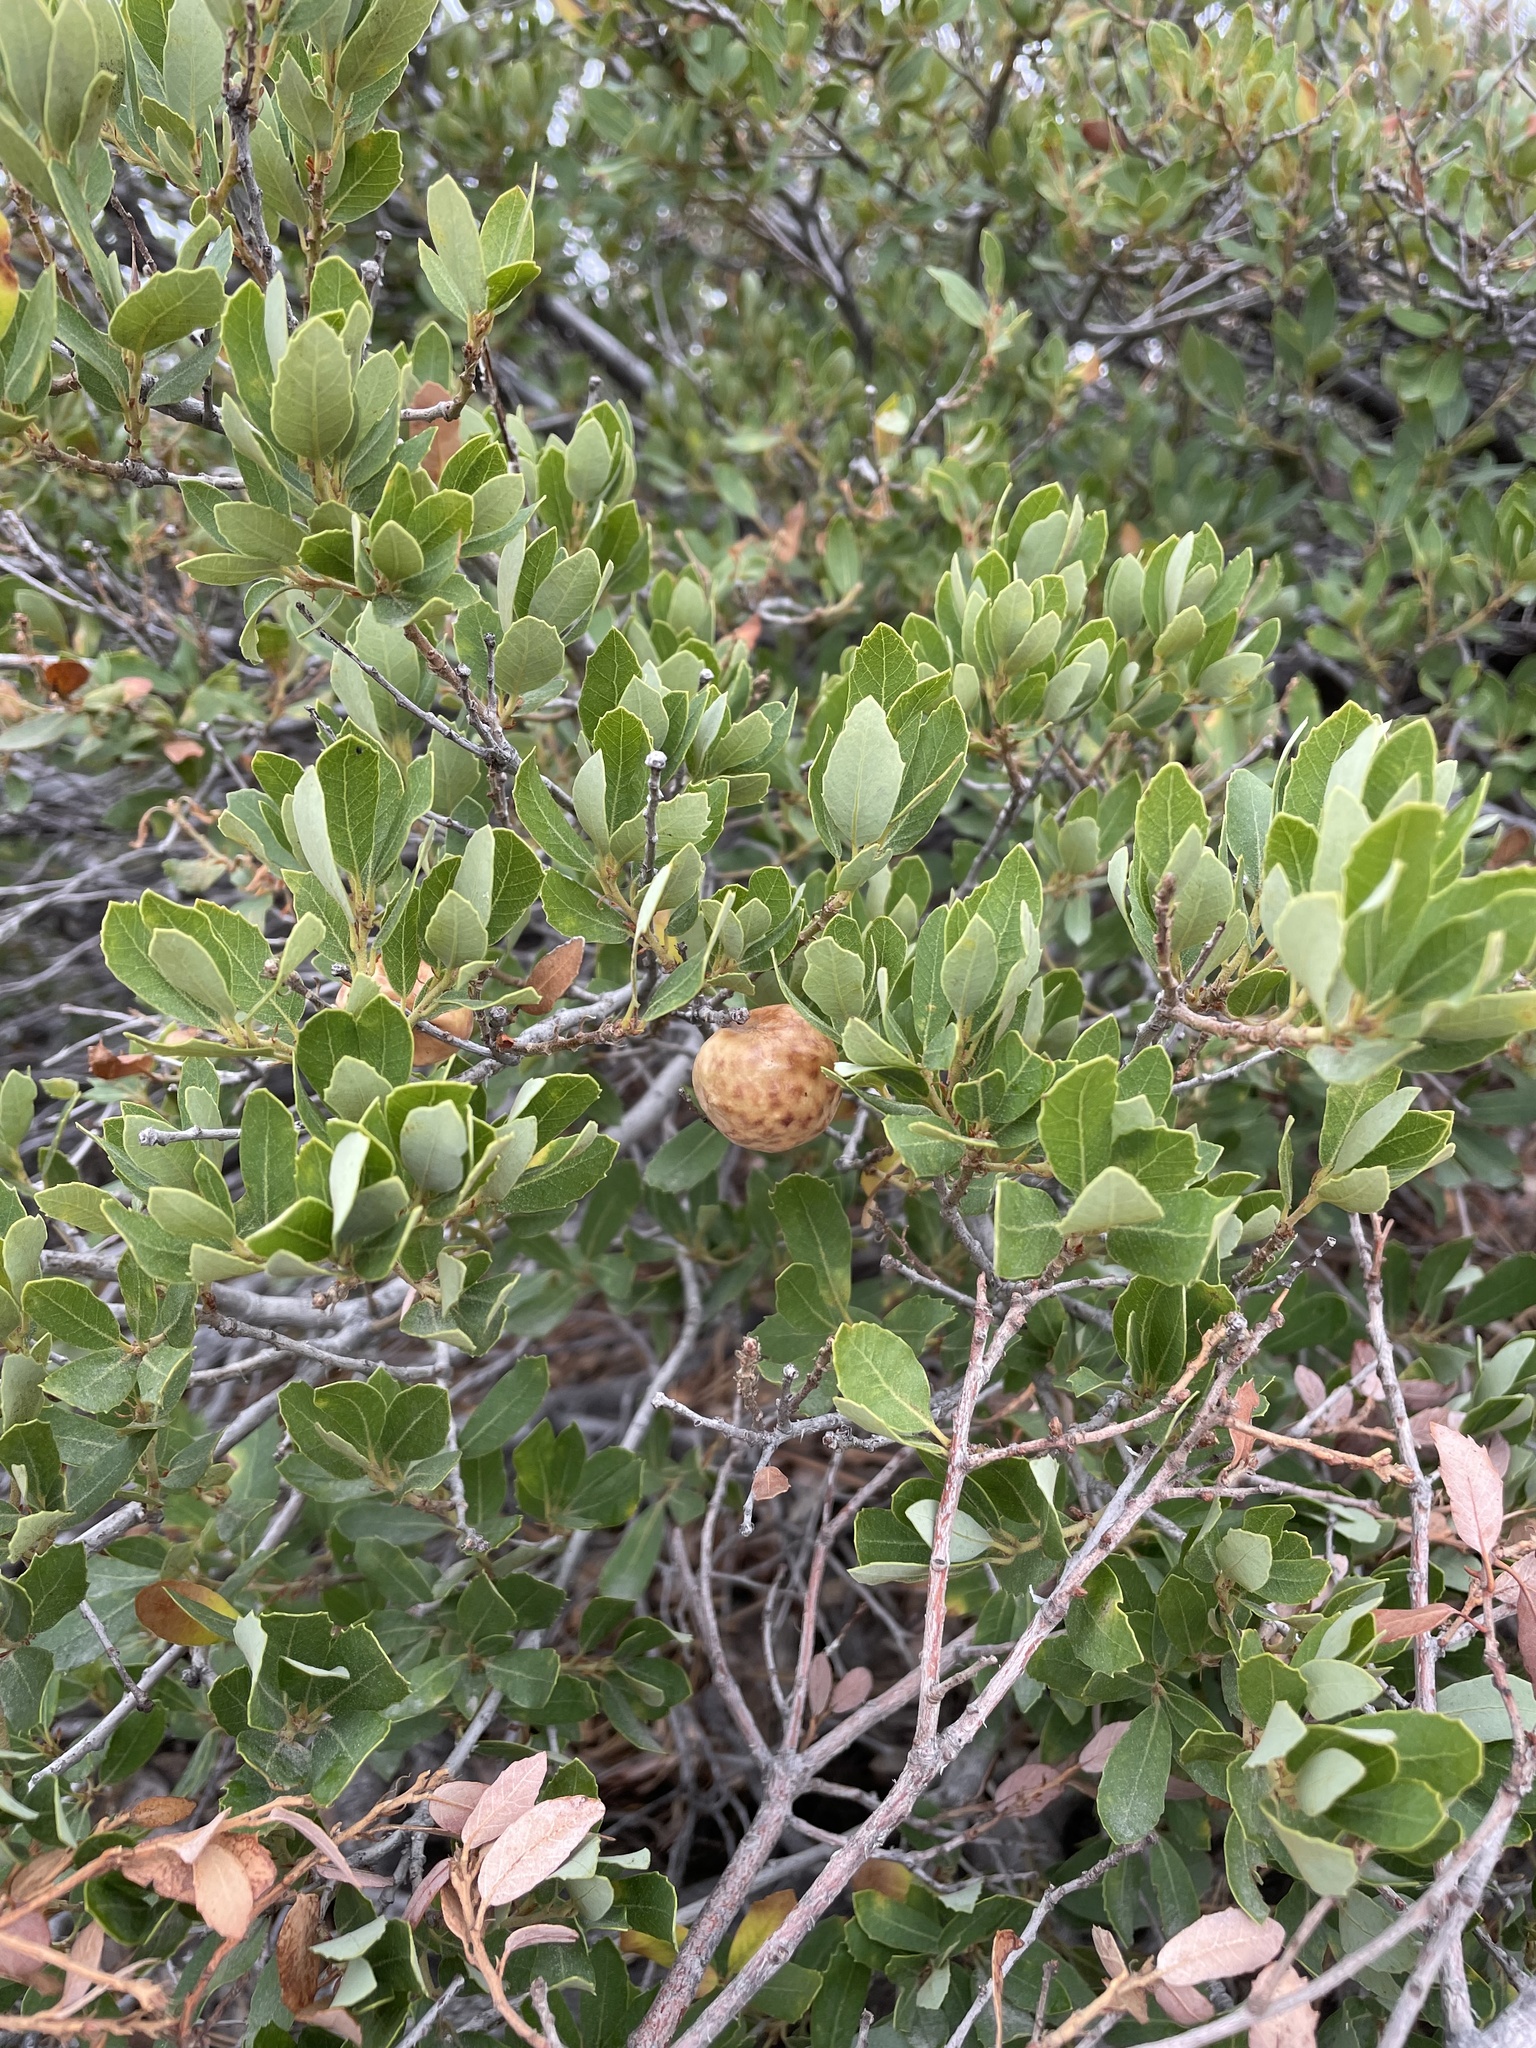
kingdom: Animalia
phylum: Arthropoda
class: Insecta
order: Hymenoptera
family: Cynipidae
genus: Andricus
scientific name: Andricus
